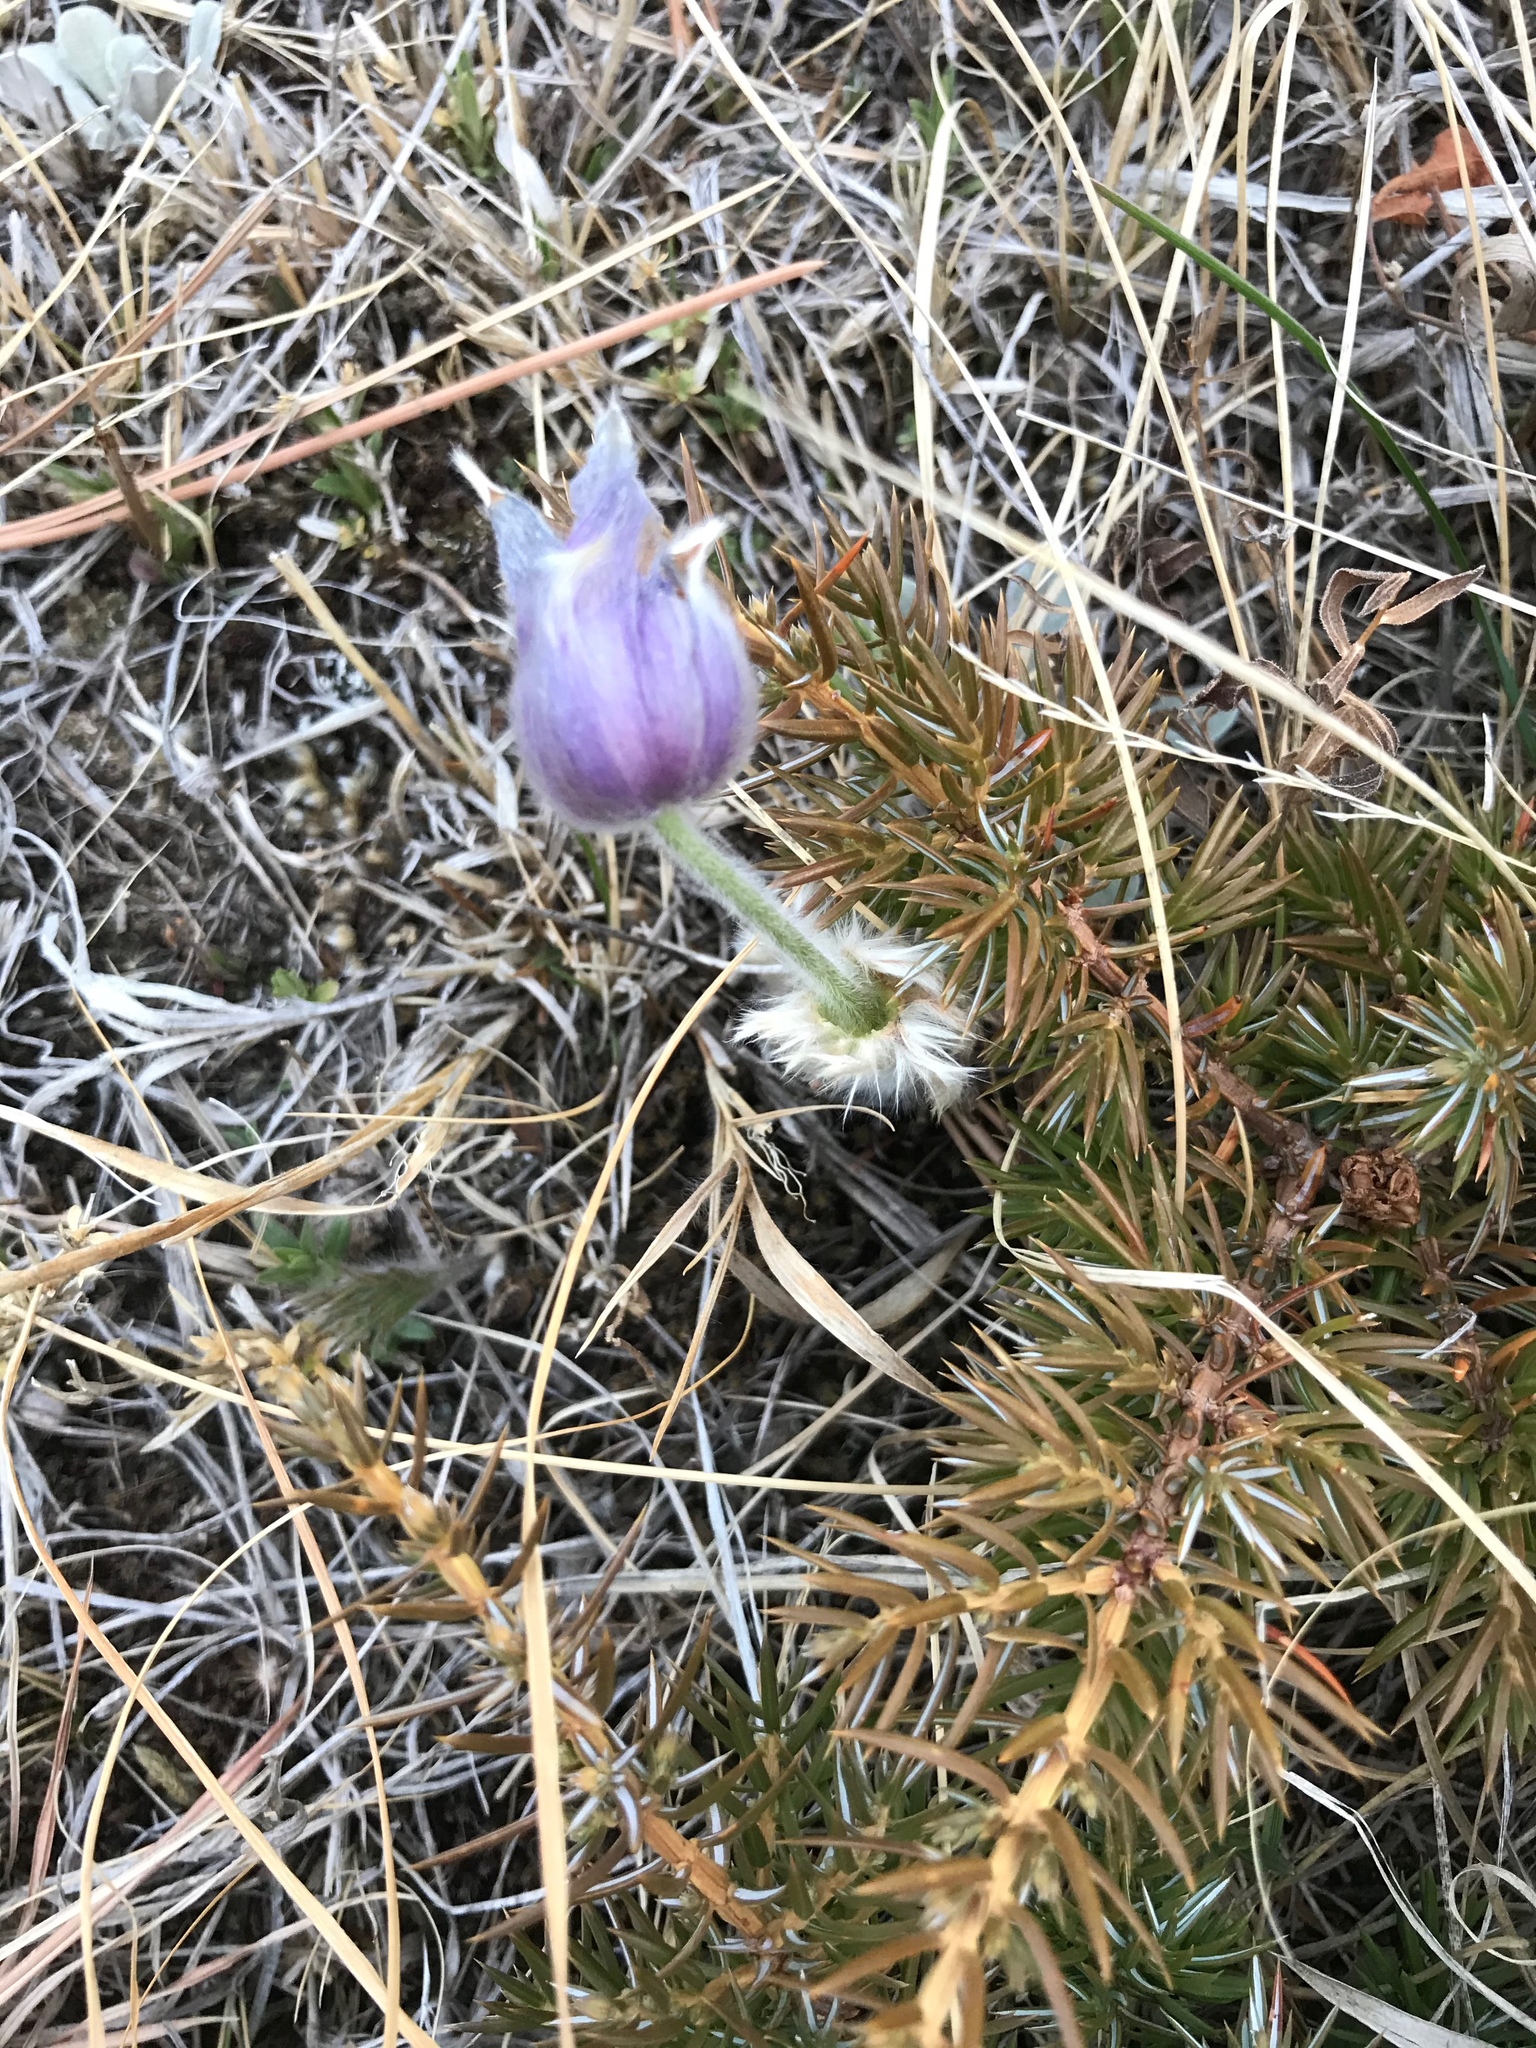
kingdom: Plantae
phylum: Tracheophyta
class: Magnoliopsida
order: Ranunculales
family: Ranunculaceae
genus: Pulsatilla
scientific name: Pulsatilla nuttalliana
